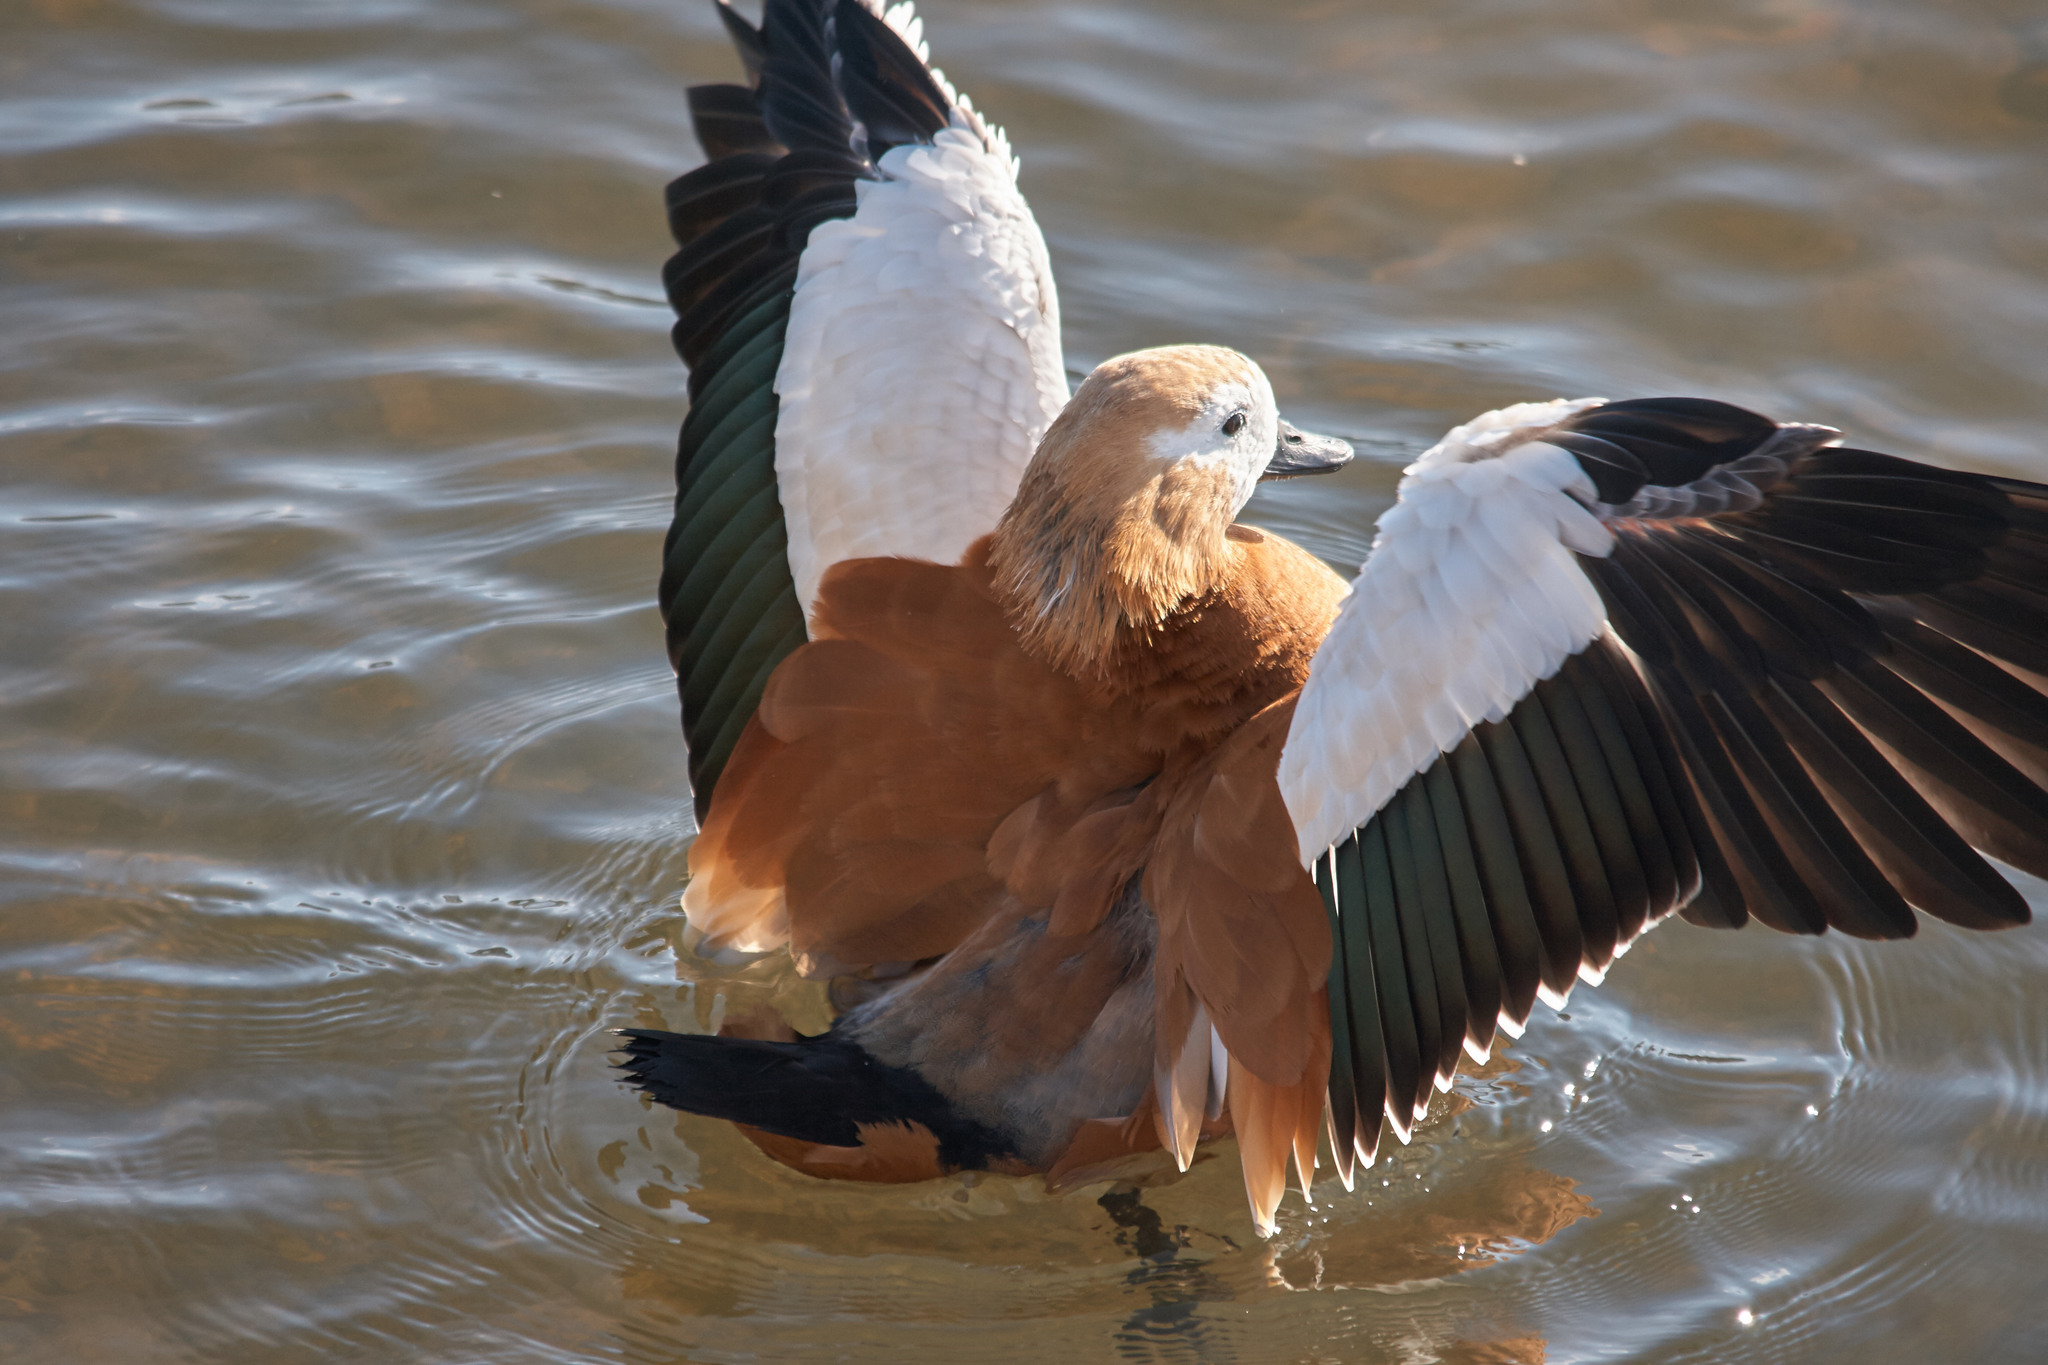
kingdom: Animalia
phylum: Chordata
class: Aves
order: Anseriformes
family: Anatidae
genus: Tadorna
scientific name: Tadorna ferruginea
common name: Ruddy shelduck
